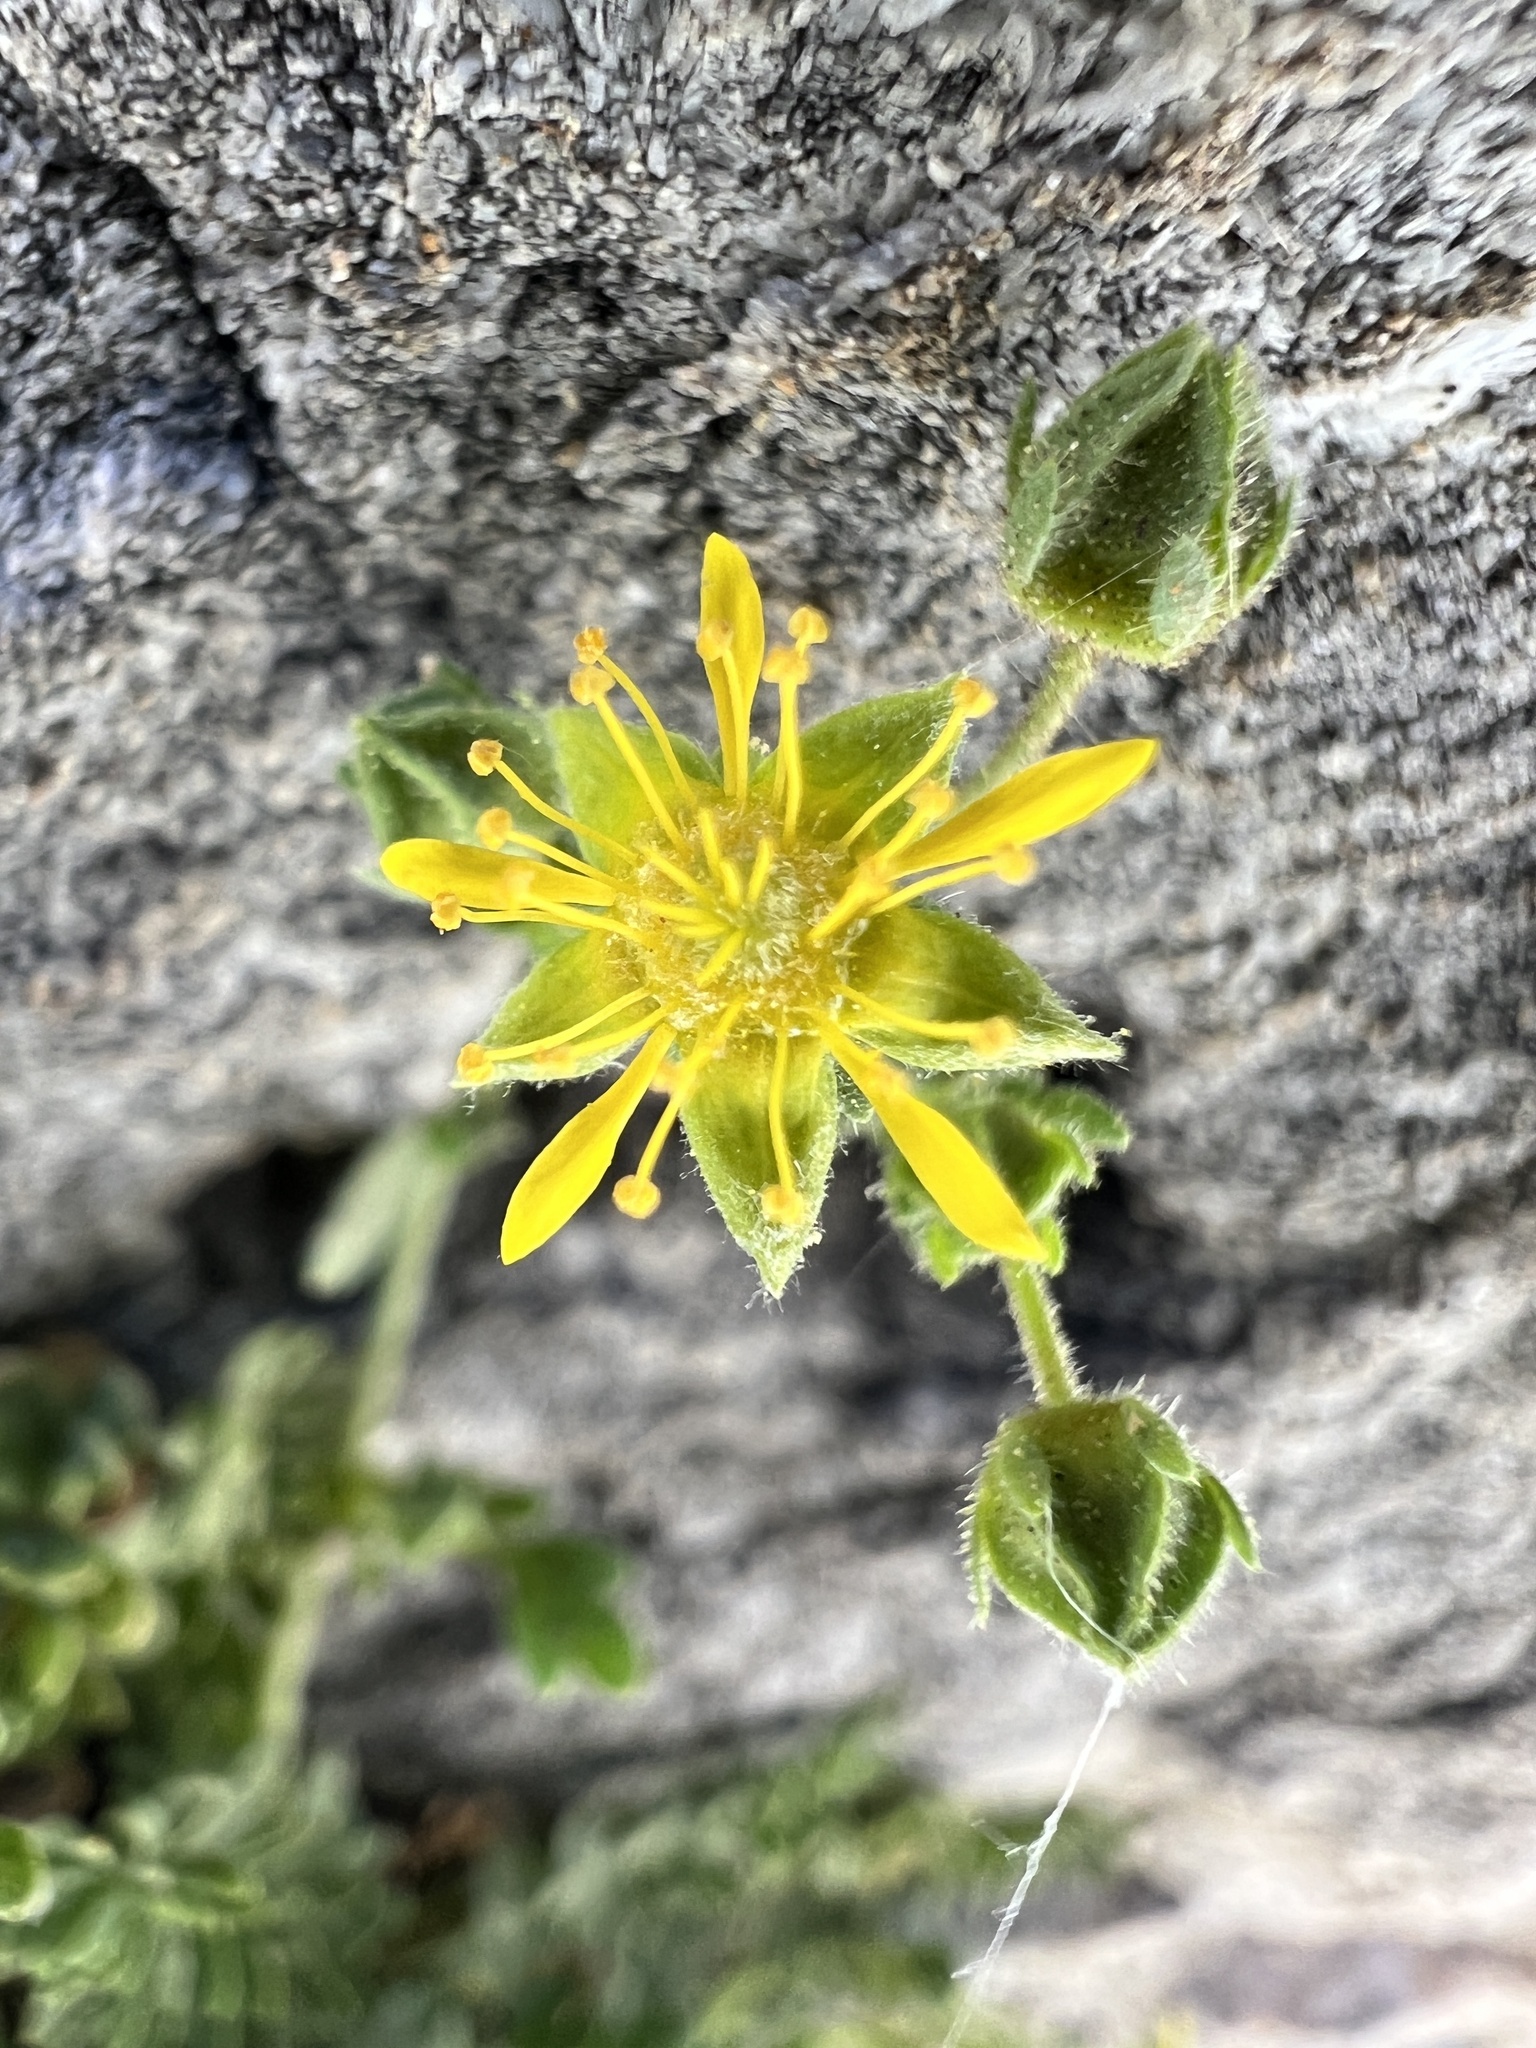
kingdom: Plantae
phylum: Tracheophyta
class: Magnoliopsida
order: Rosales
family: Rosaceae
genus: Potentilla
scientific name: Potentilla jaegeri
